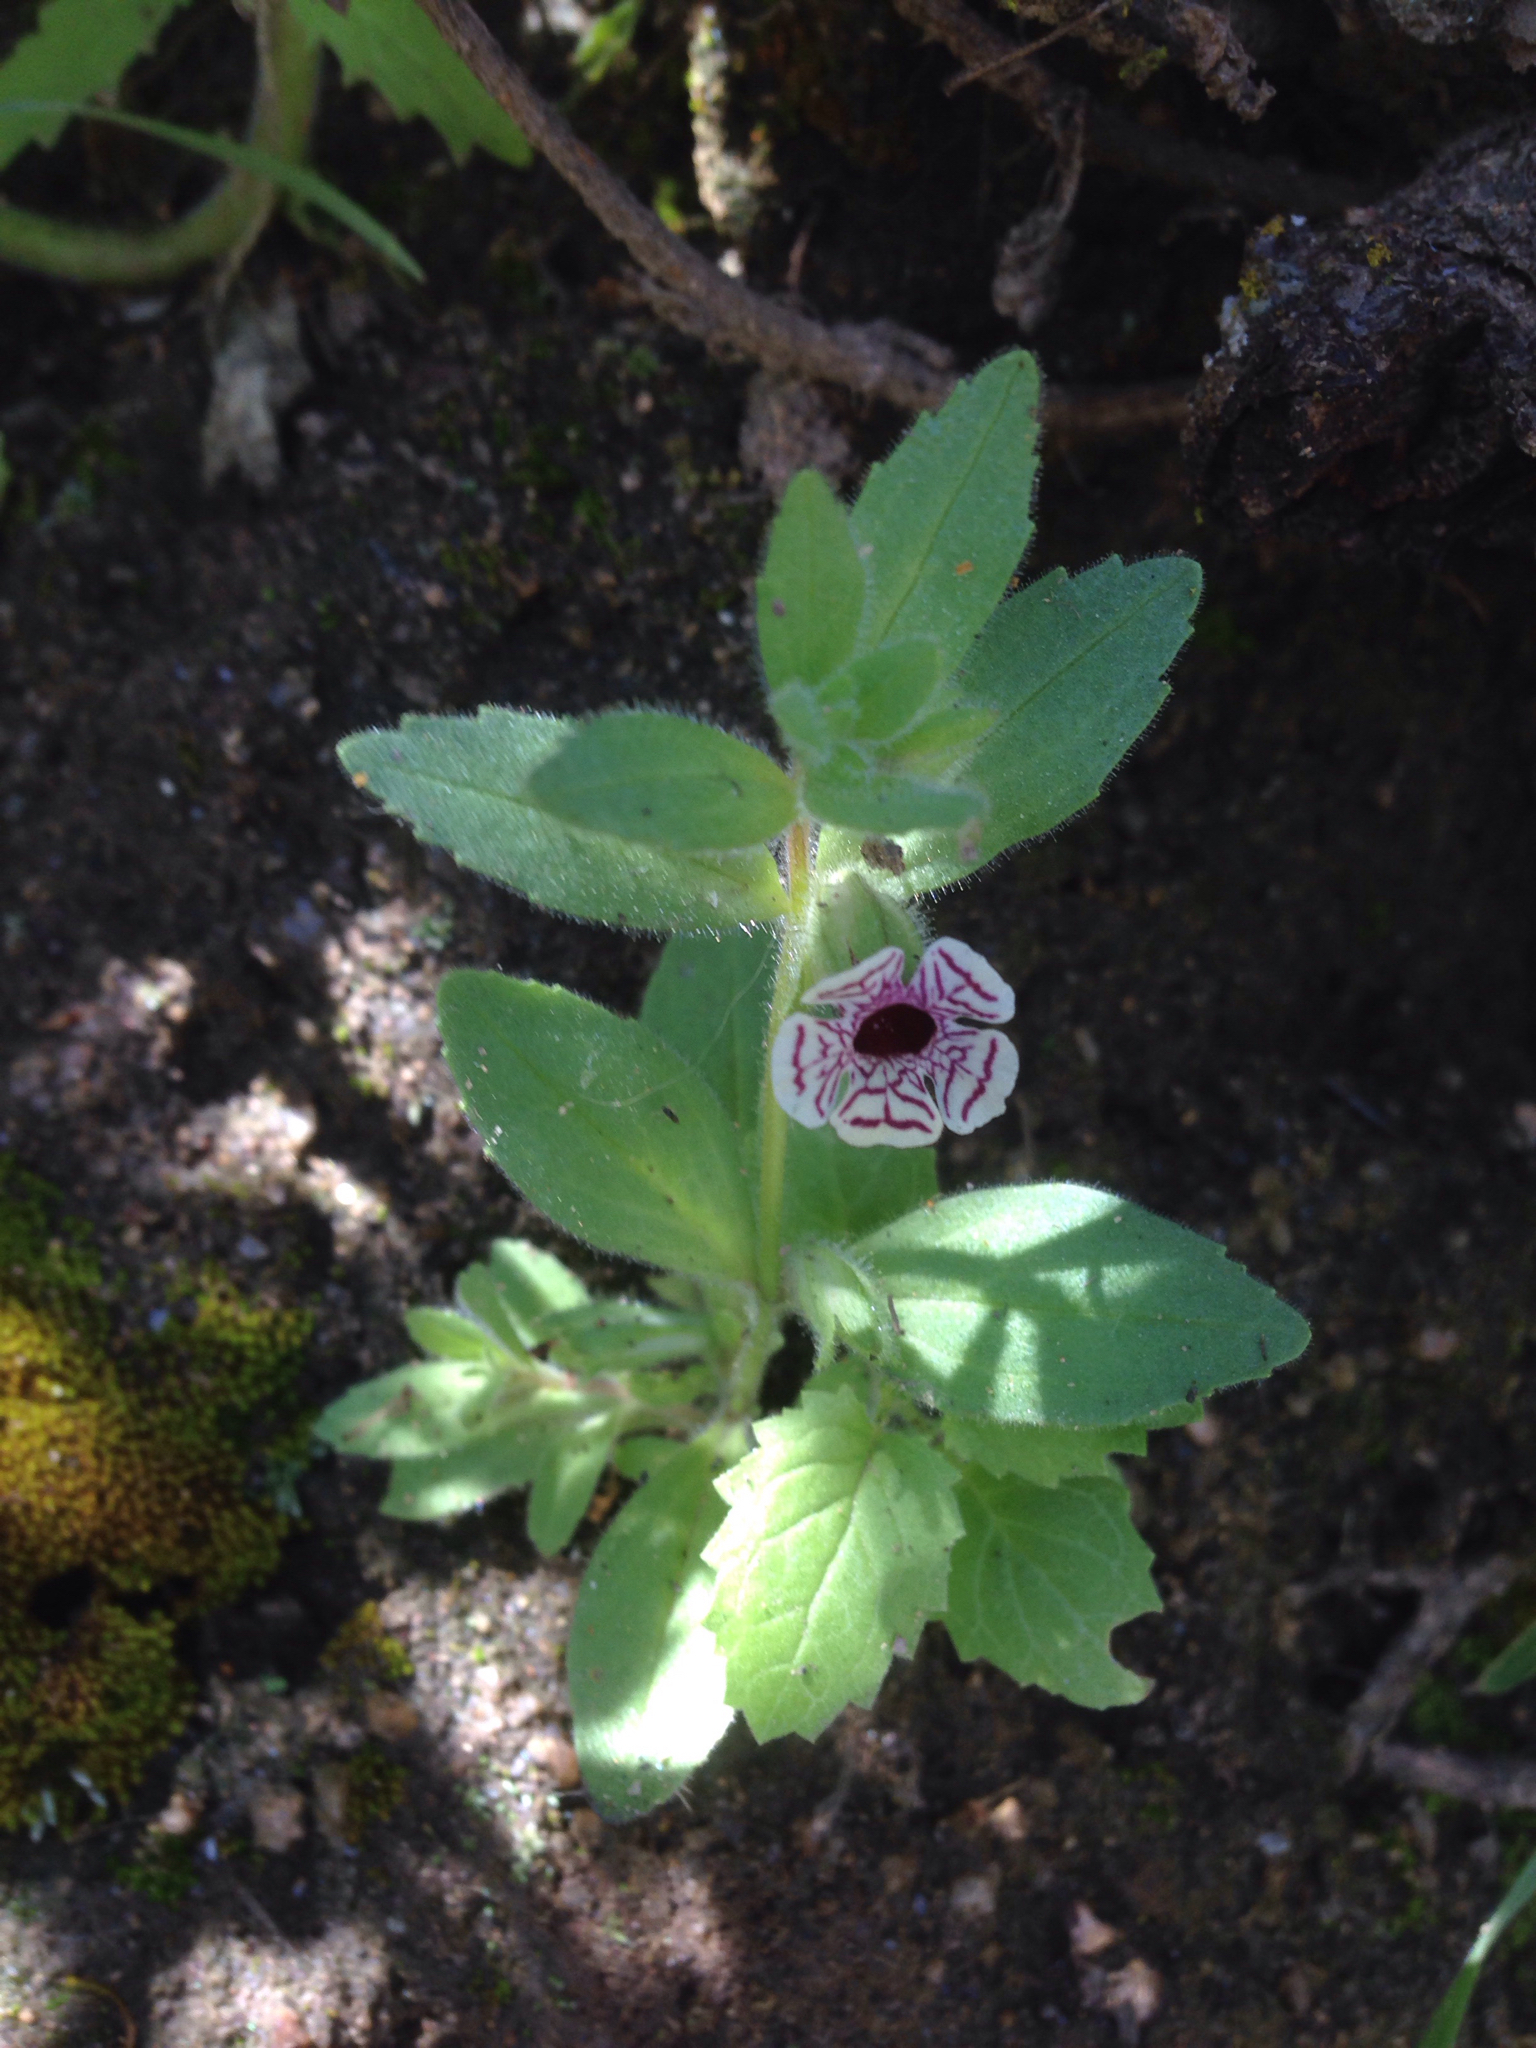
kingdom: Plantae
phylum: Tracheophyta
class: Magnoliopsida
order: Lamiales
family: Phrymaceae
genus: Diplacus
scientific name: Diplacus pictus
